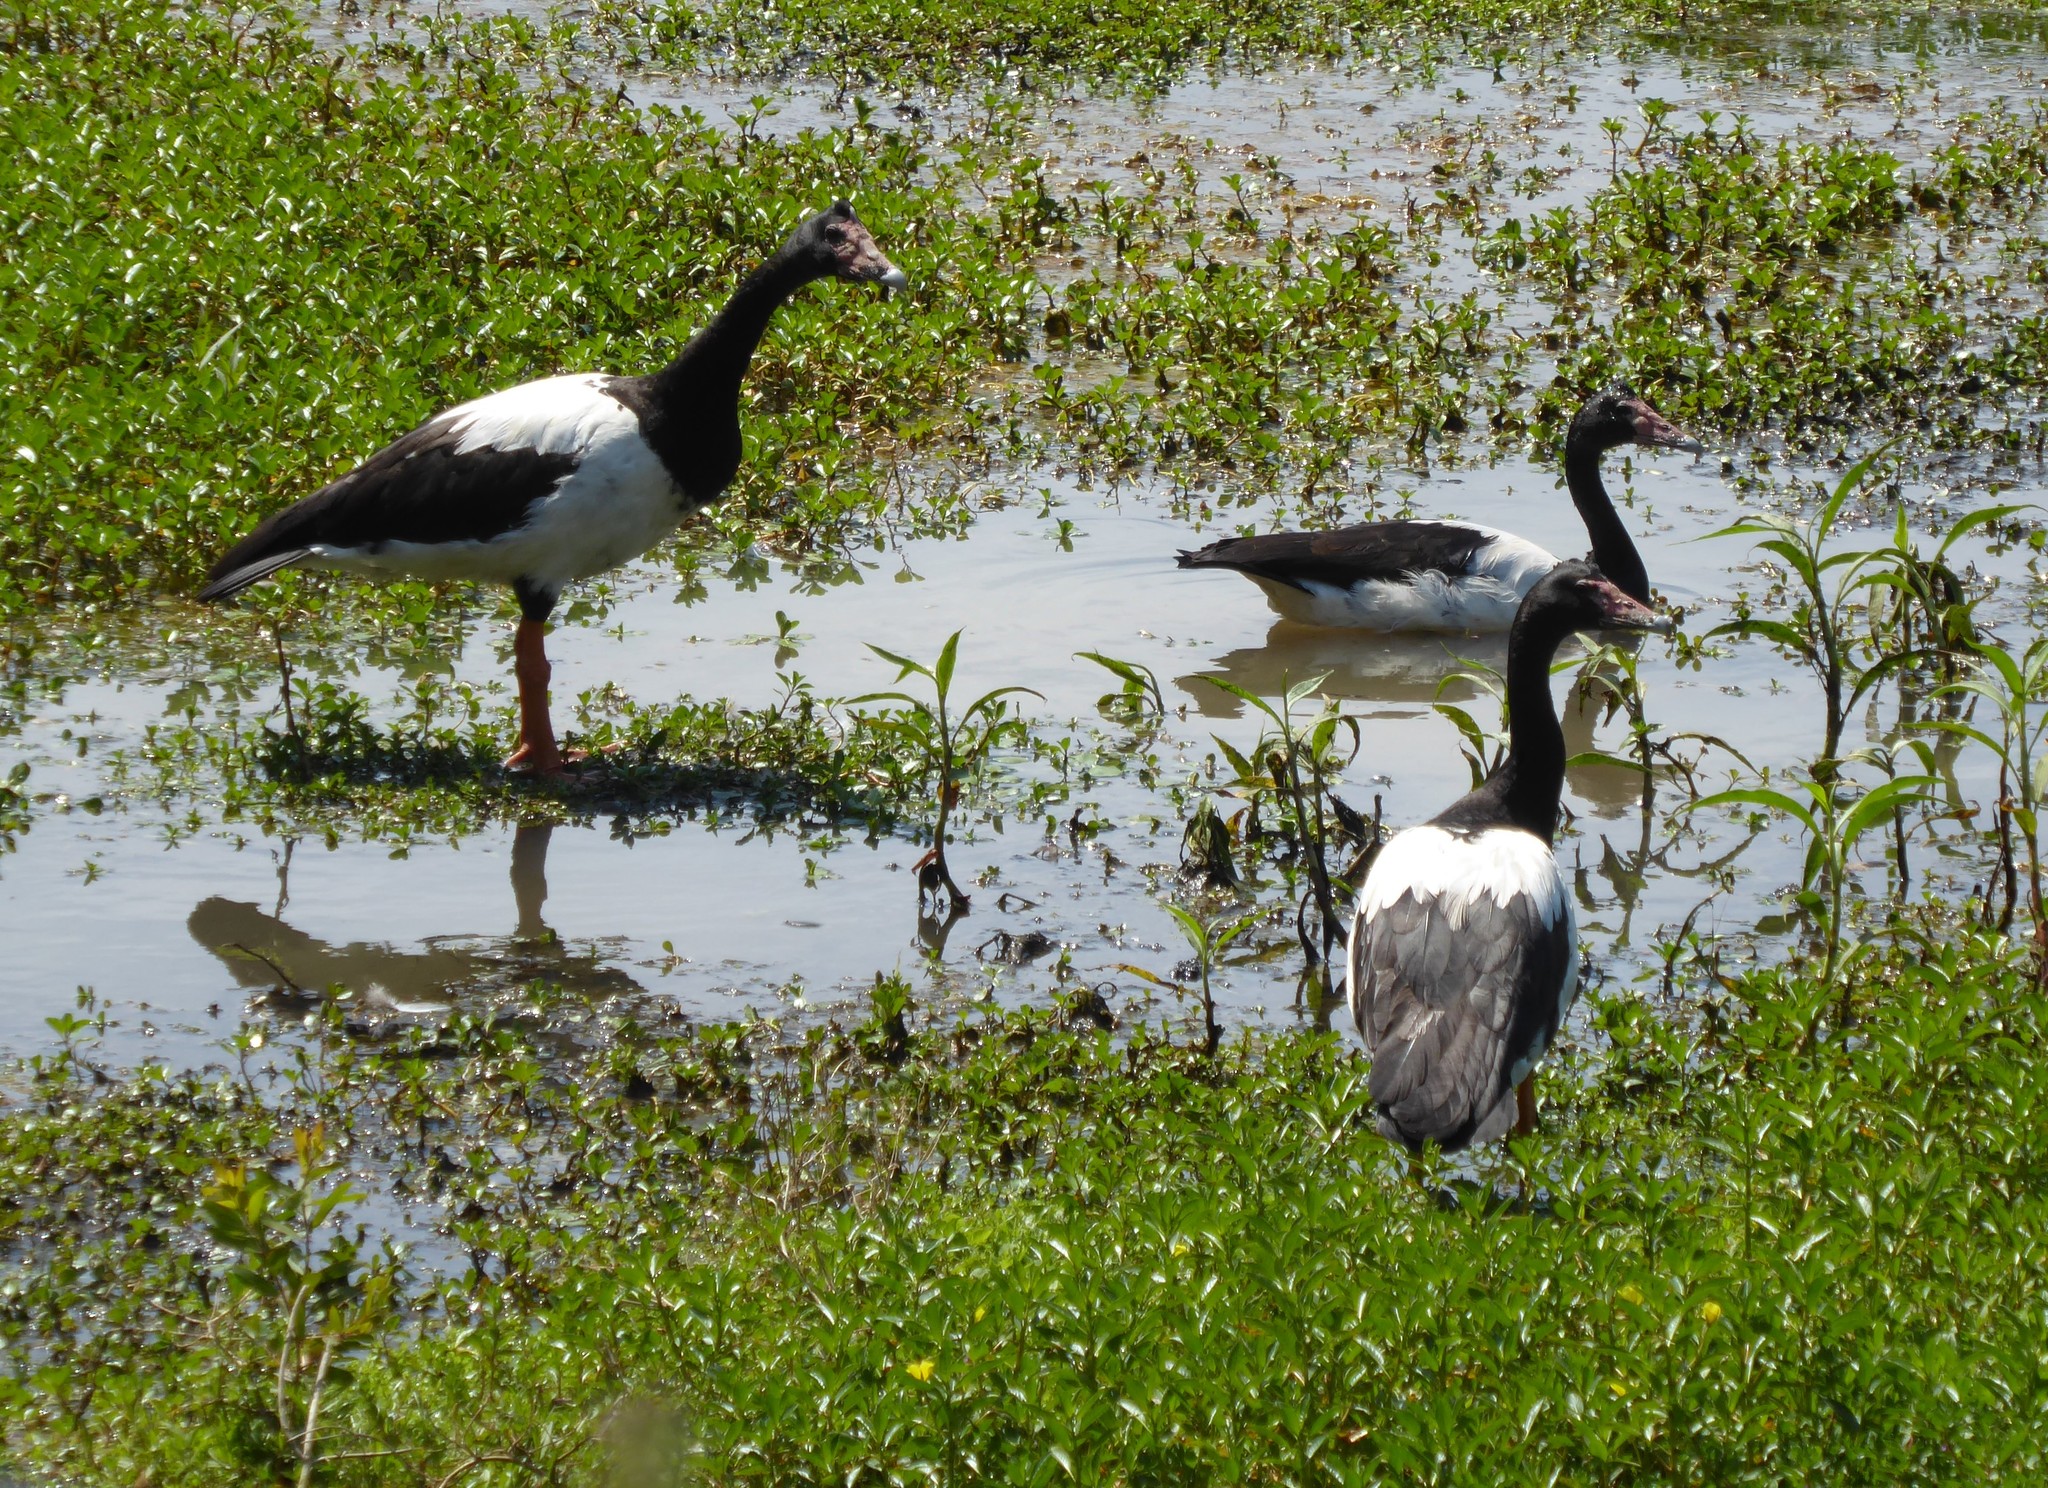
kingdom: Animalia
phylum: Chordata
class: Aves
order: Anseriformes
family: Anseranatidae
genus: Anseranas
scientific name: Anseranas semipalmata
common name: Magpie goose
